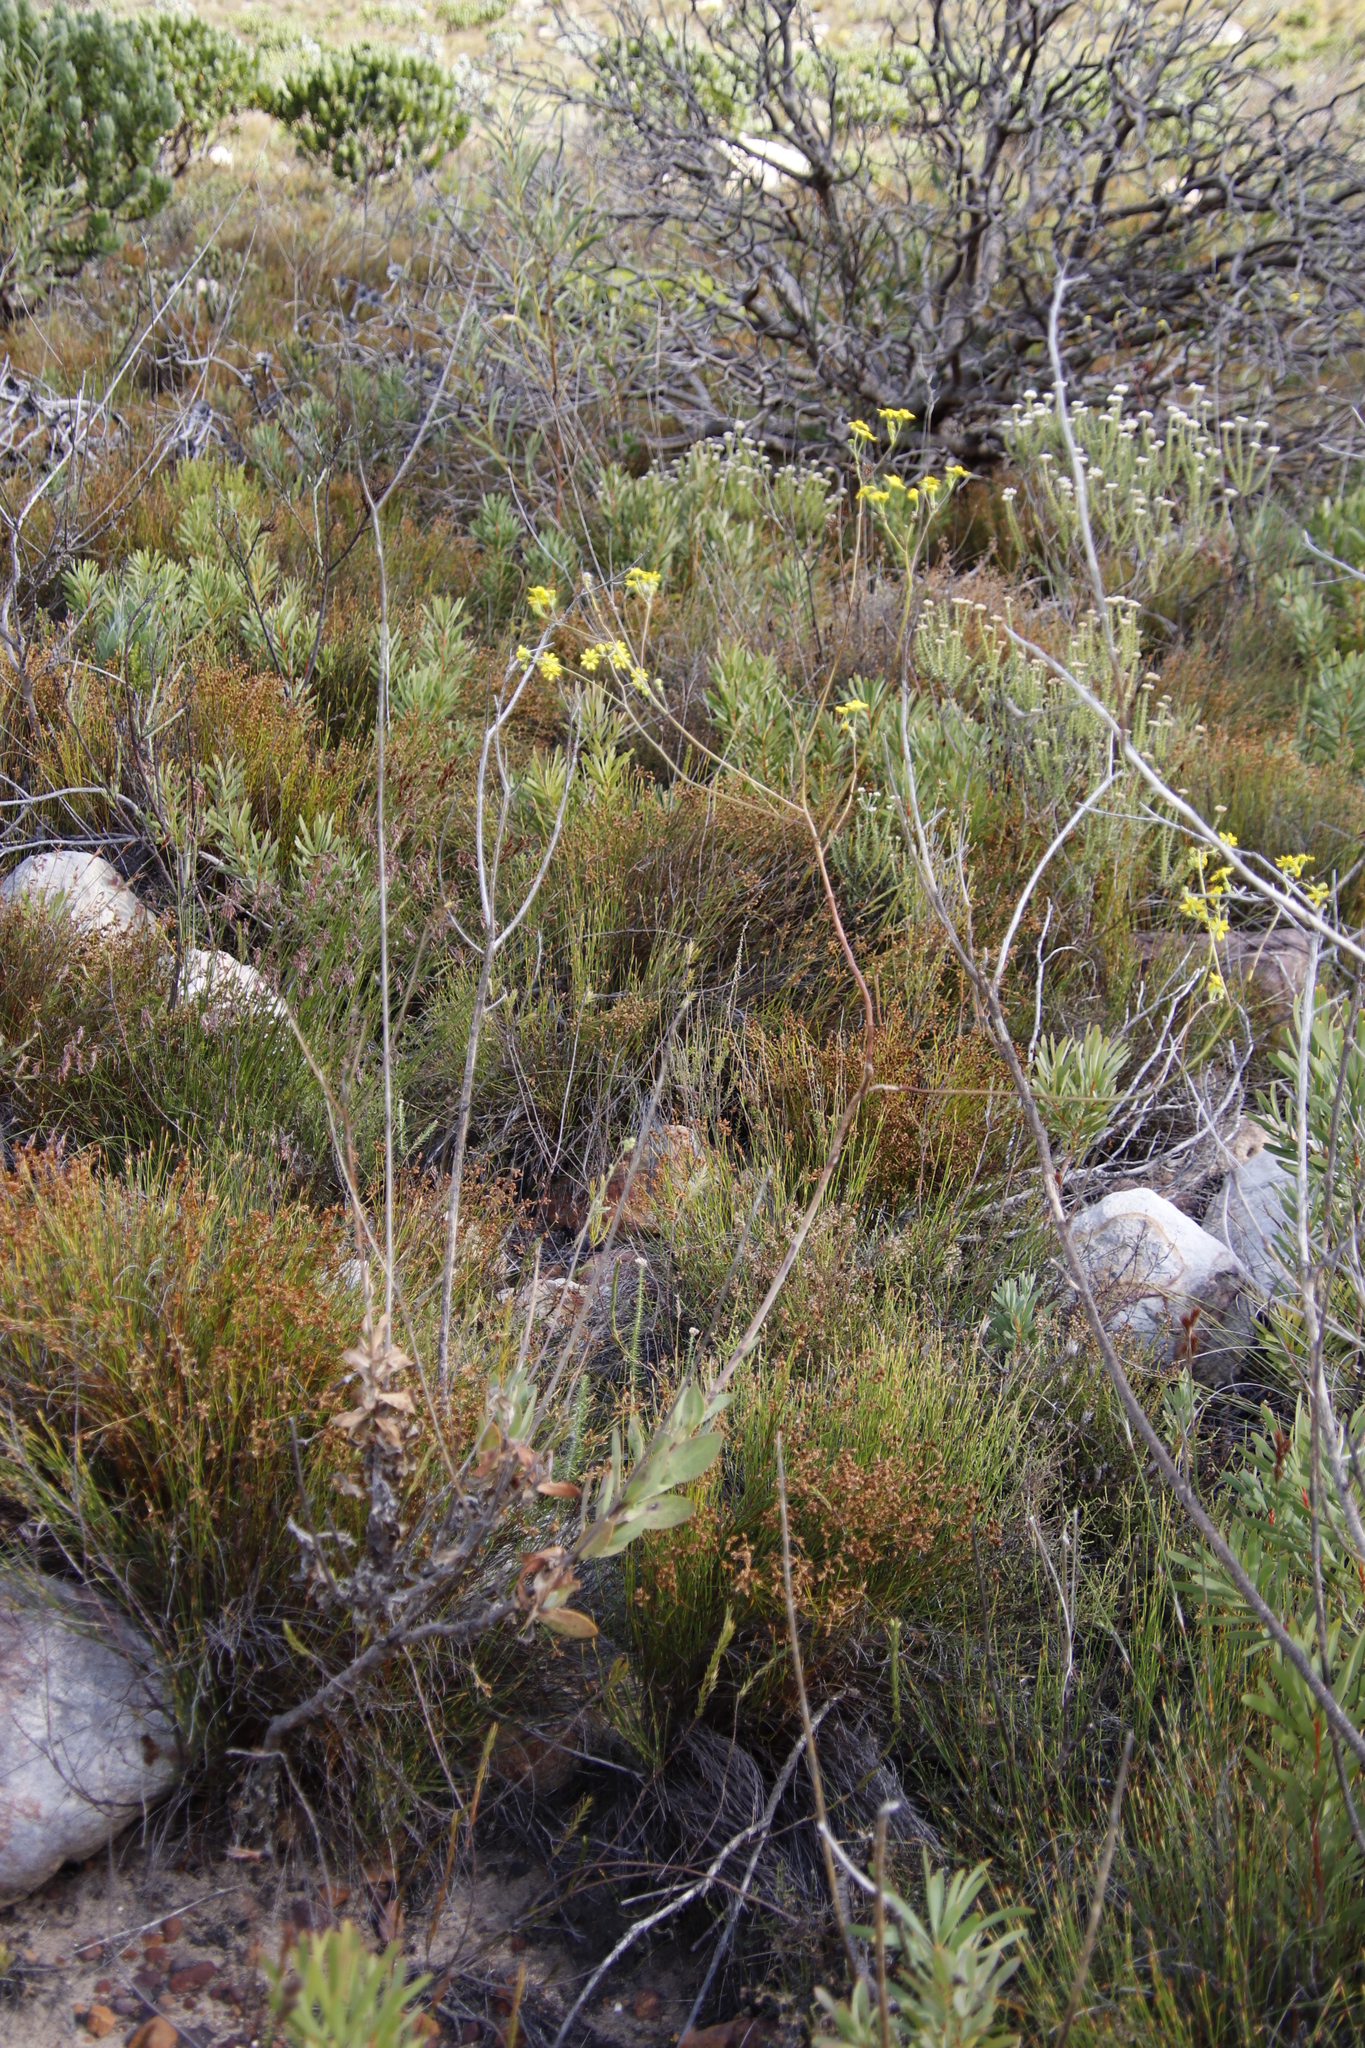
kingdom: Plantae
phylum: Tracheophyta
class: Magnoliopsida
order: Asterales
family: Asteraceae
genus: Othonna
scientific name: Othonna quinquedentata
